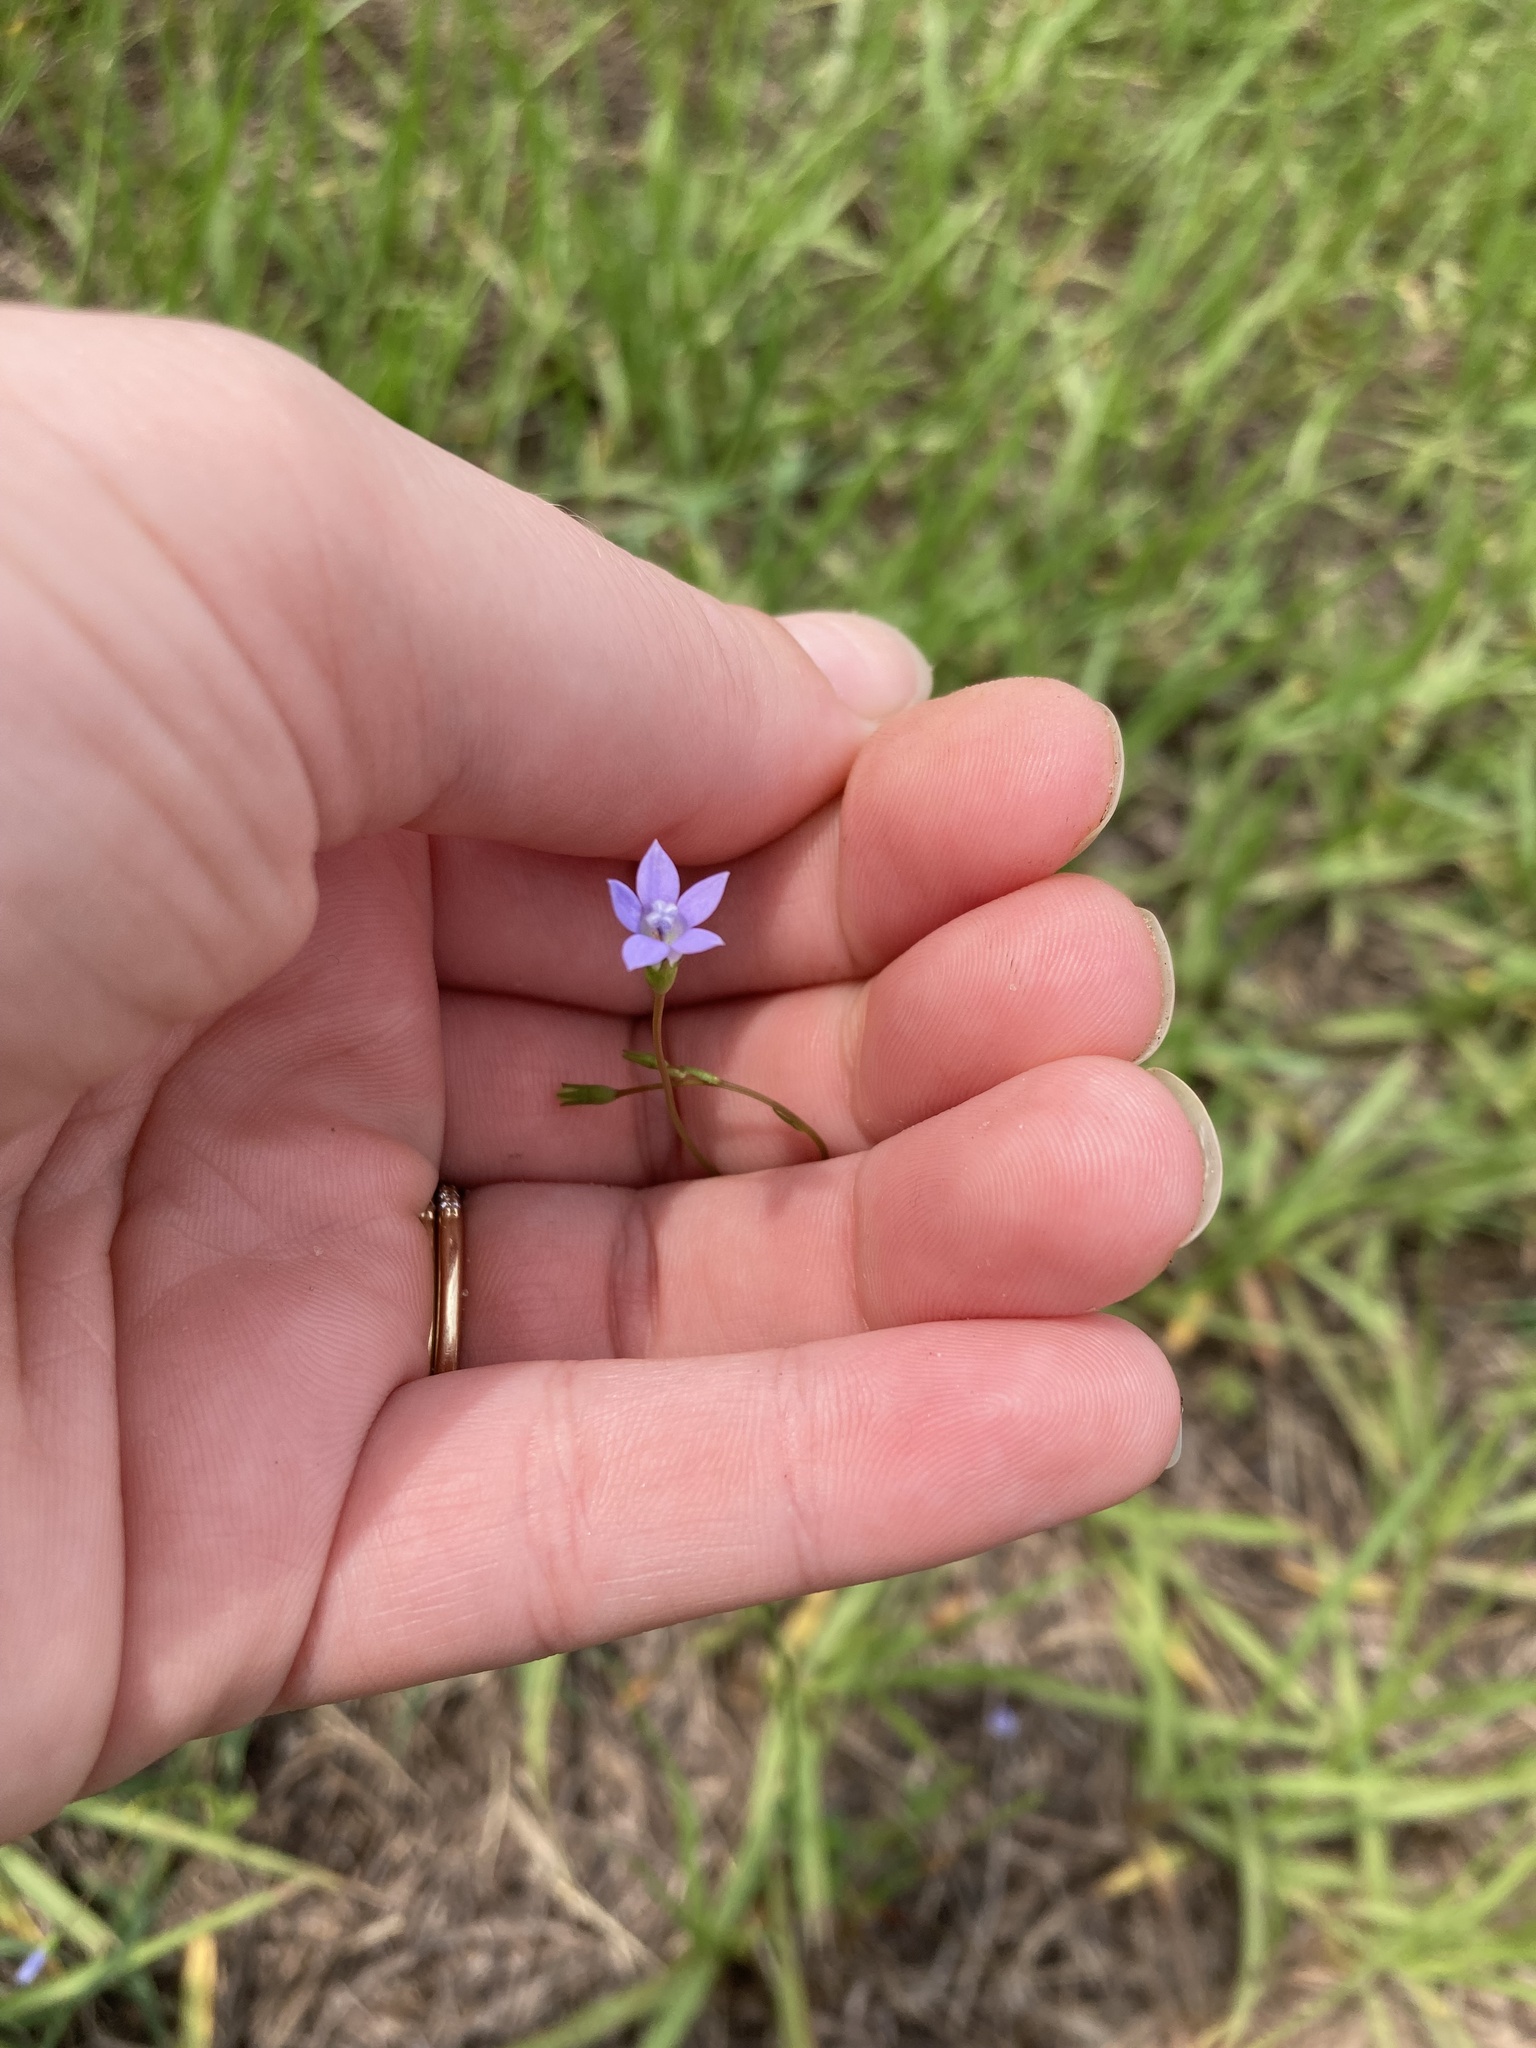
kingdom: Plantae
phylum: Tracheophyta
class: Magnoliopsida
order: Asterales
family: Campanulaceae
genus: Wahlenbergia
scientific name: Wahlenbergia marginata
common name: Southern rockbell
